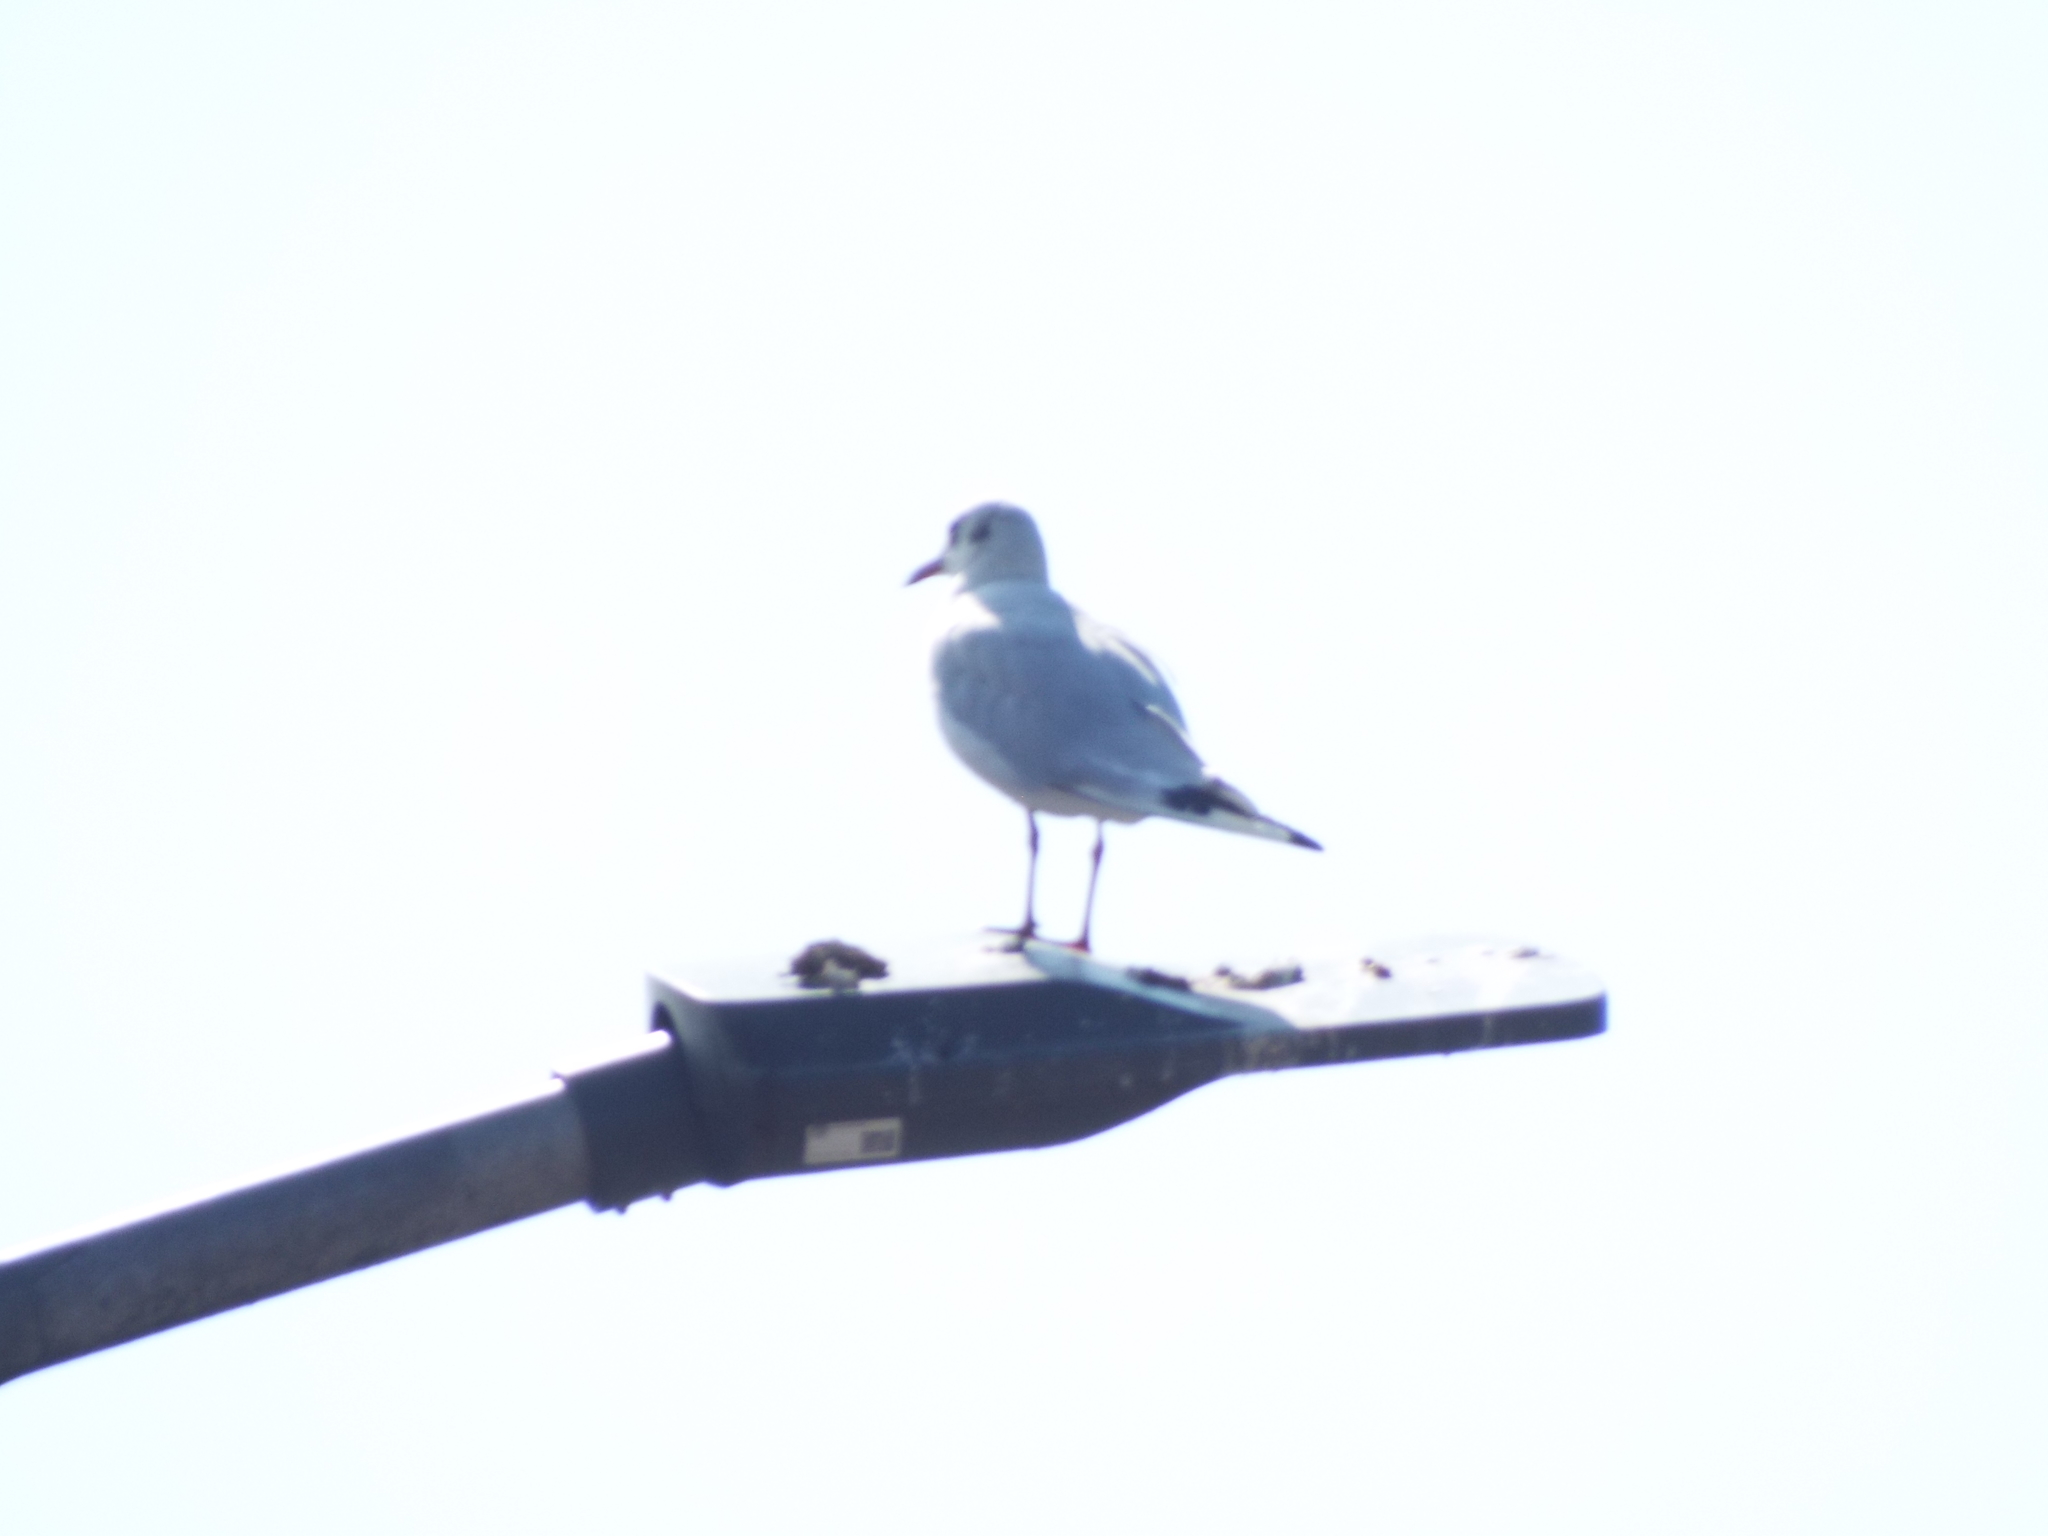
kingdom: Animalia
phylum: Chordata
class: Aves
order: Charadriiformes
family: Laridae
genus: Chroicocephalus
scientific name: Chroicocephalus ridibundus
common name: Black-headed gull
